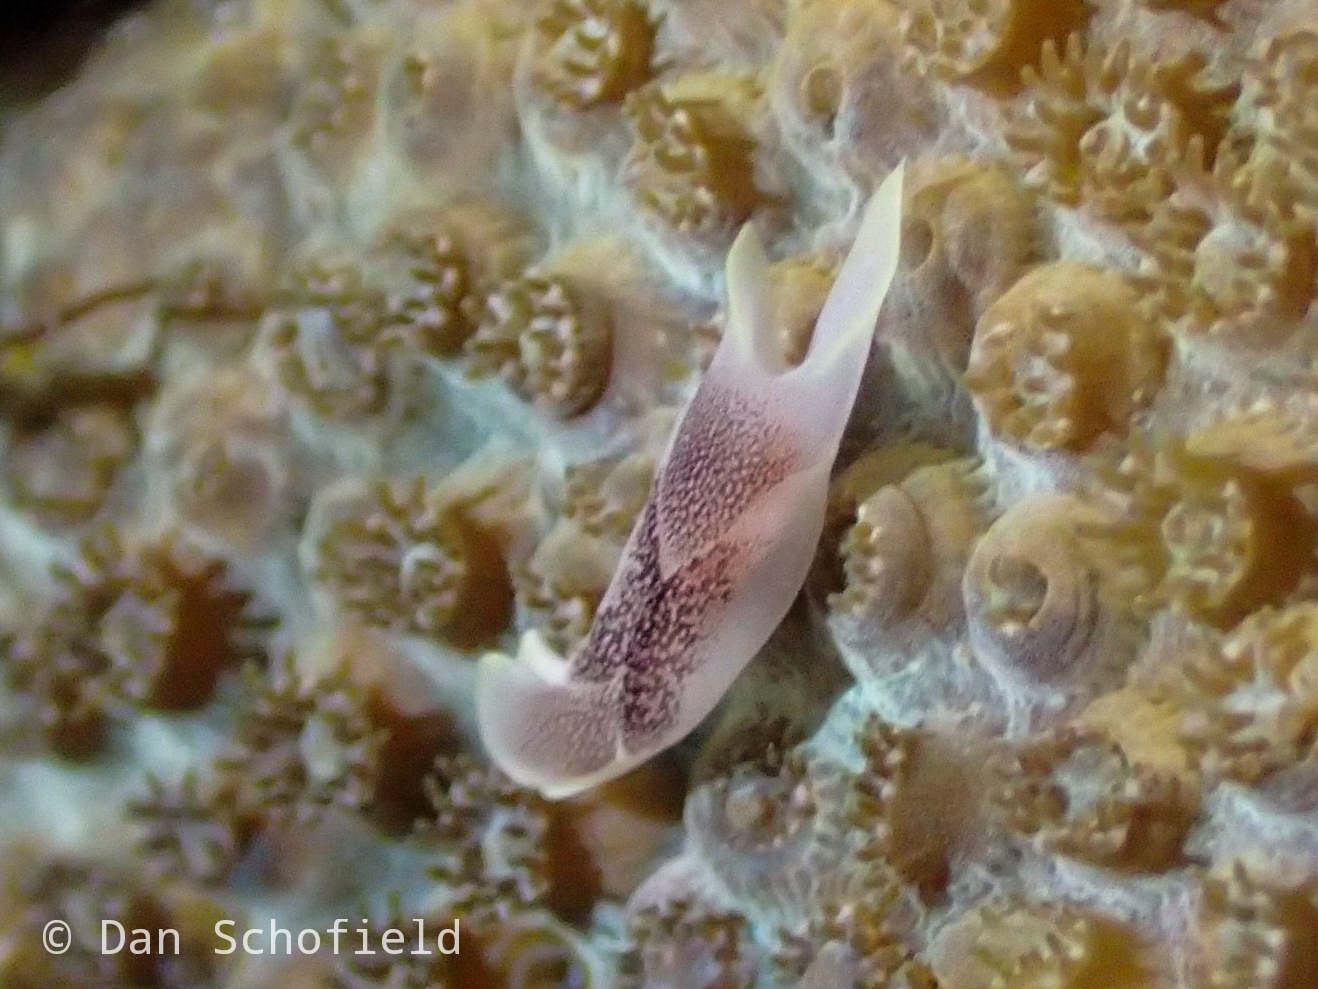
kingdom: Animalia
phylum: Mollusca
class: Gastropoda
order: Cephalaspidea
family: Aglajidae
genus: Chelidonura
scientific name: Chelidonura amoena
